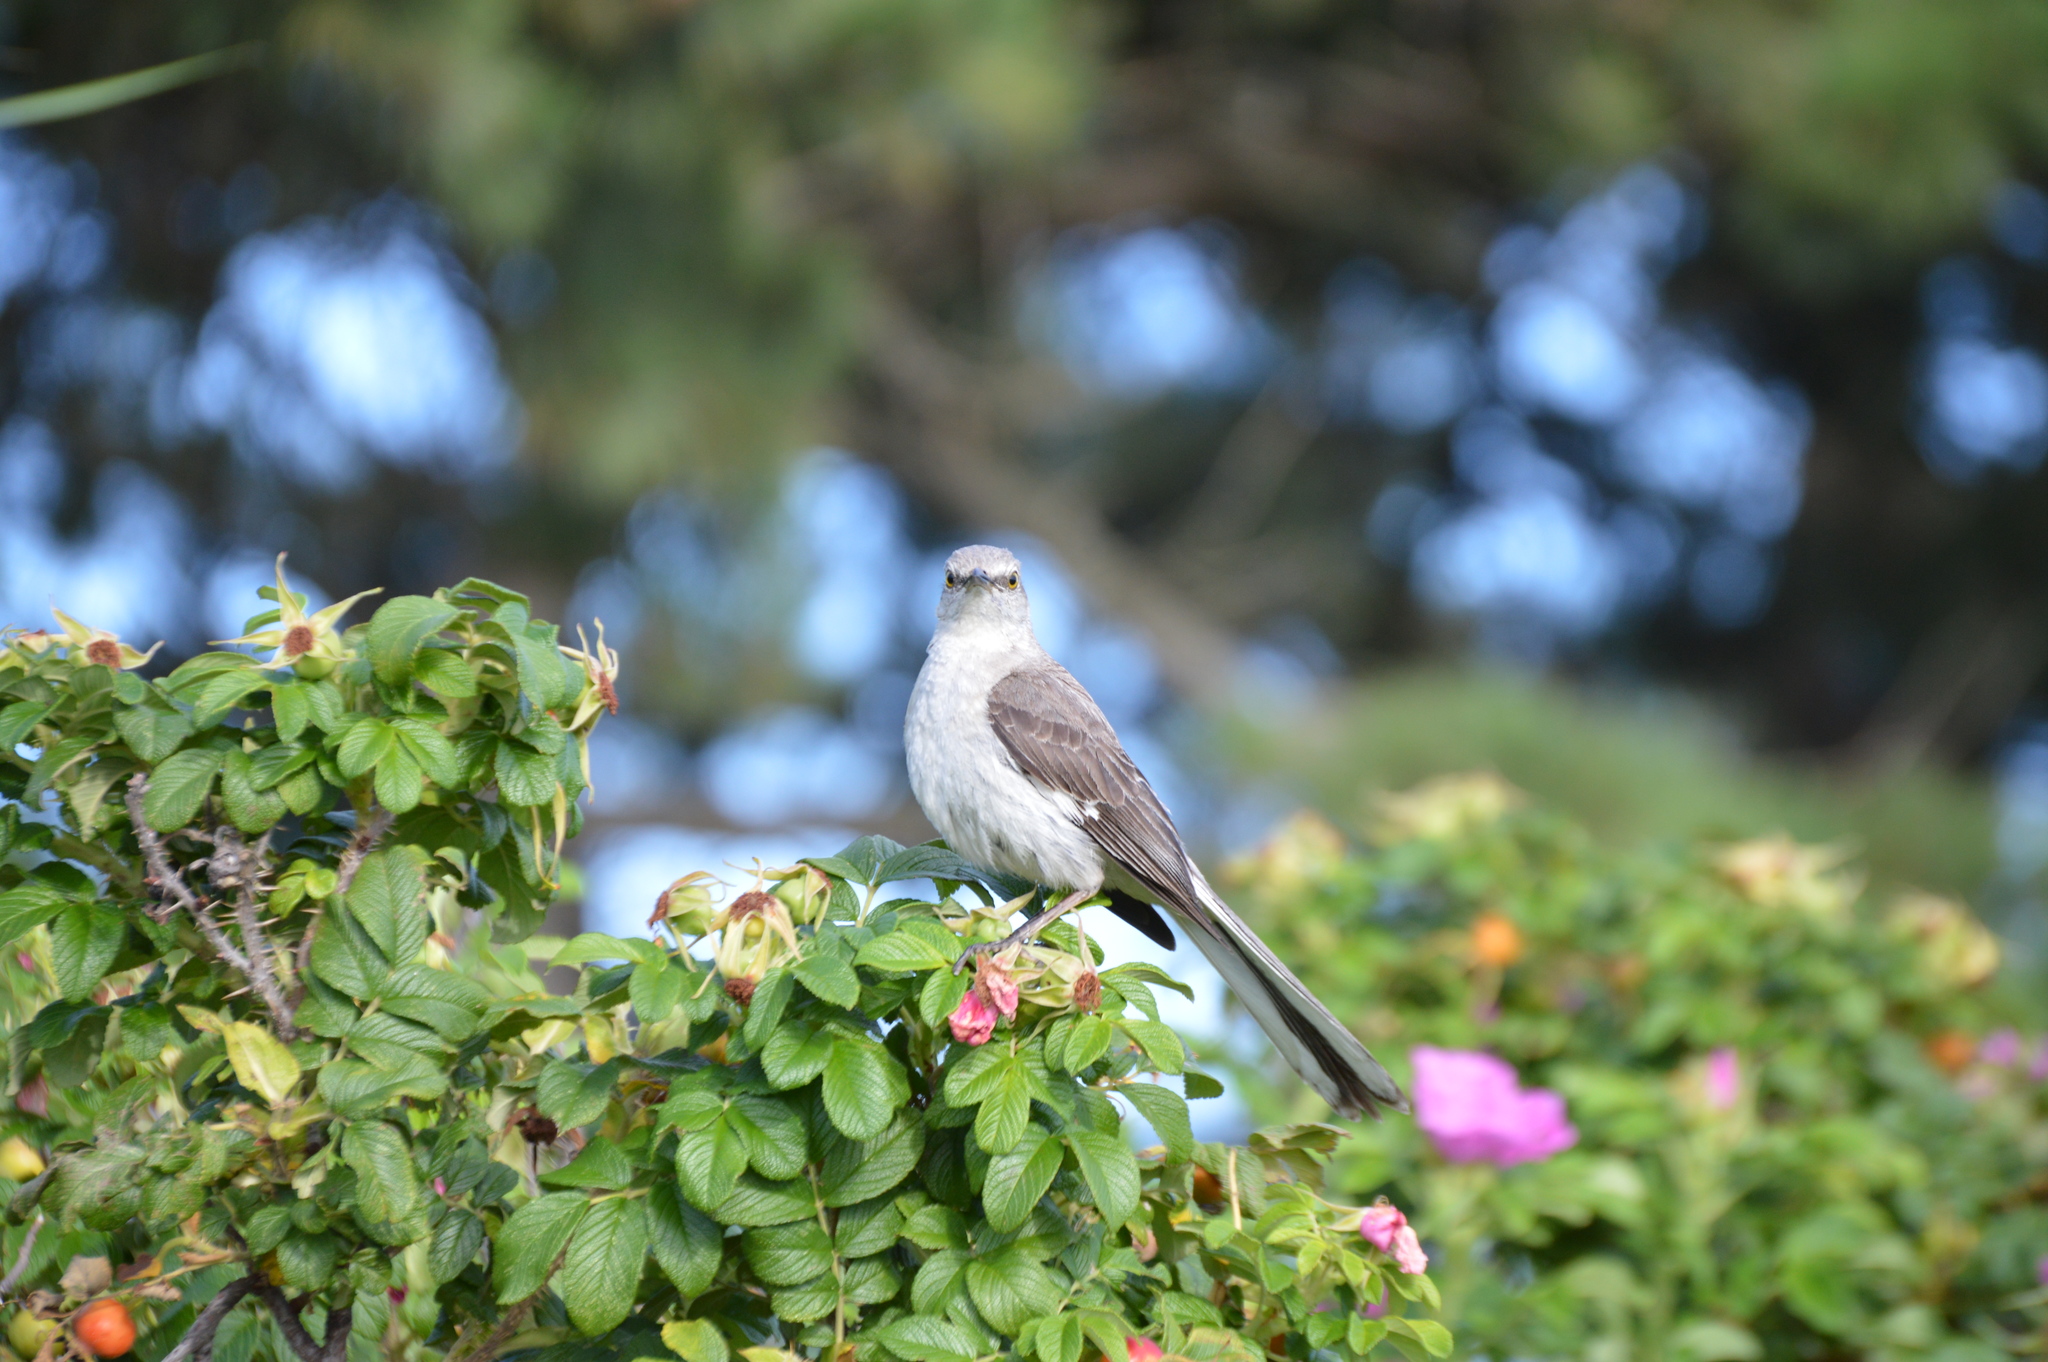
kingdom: Animalia
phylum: Chordata
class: Aves
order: Passeriformes
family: Mimidae
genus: Mimus
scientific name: Mimus polyglottos
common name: Northern mockingbird
